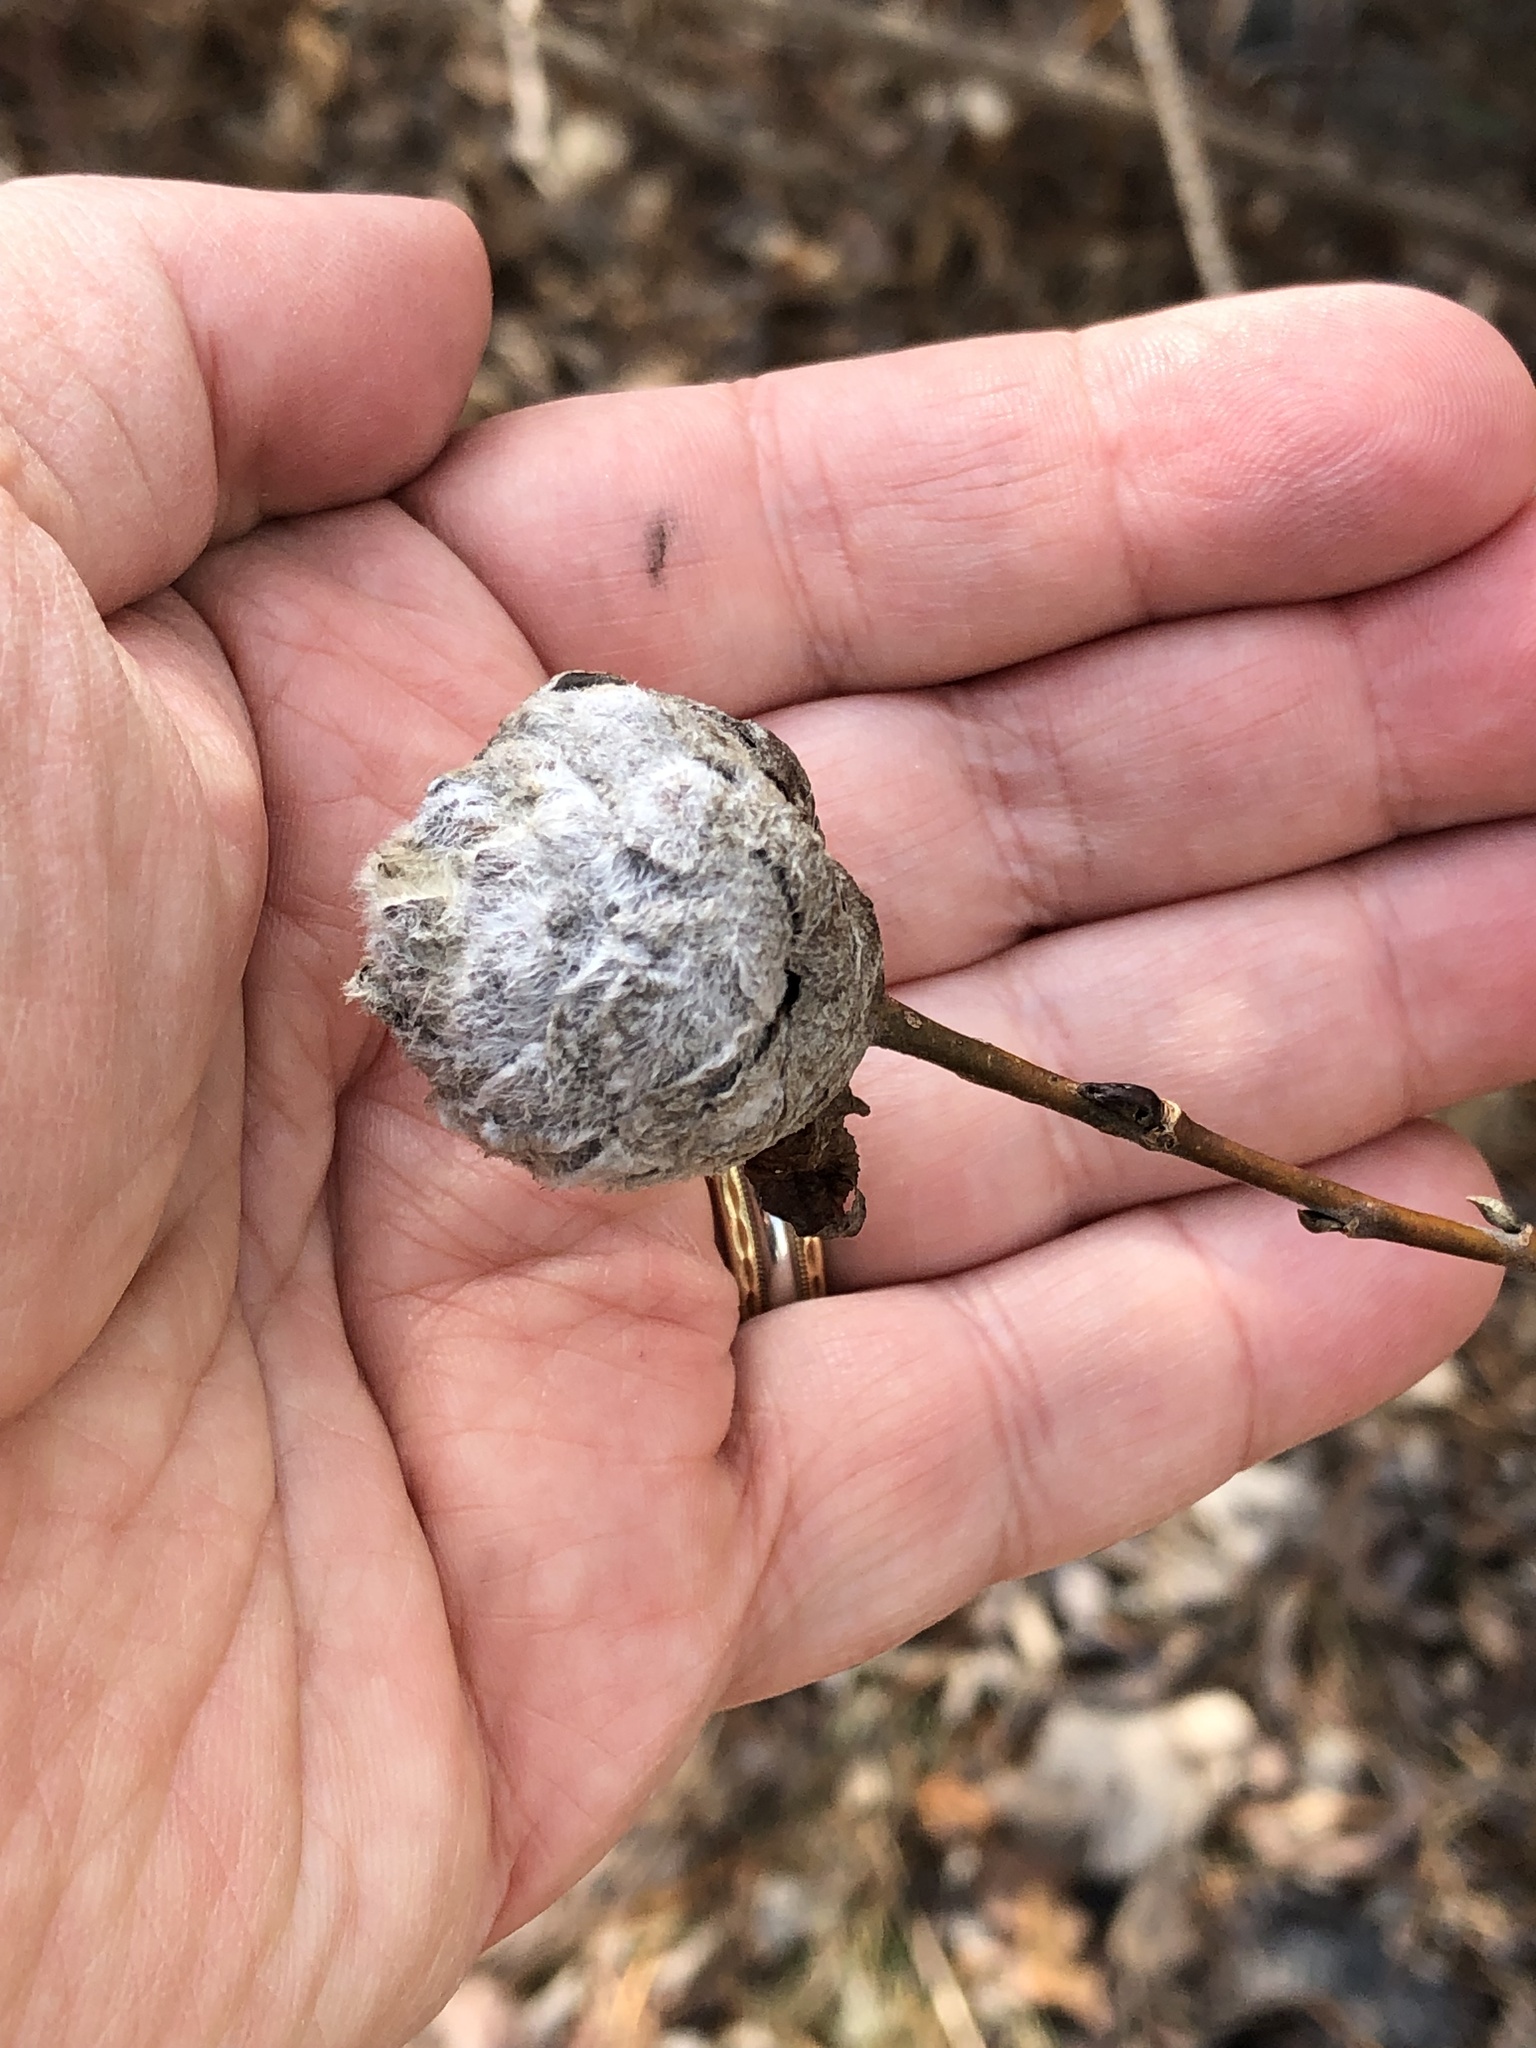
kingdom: Animalia
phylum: Arthropoda
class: Insecta
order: Diptera
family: Cecidomyiidae
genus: Rabdophaga
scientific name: Rabdophaga strobiloides
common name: Willow pinecone gall midge
